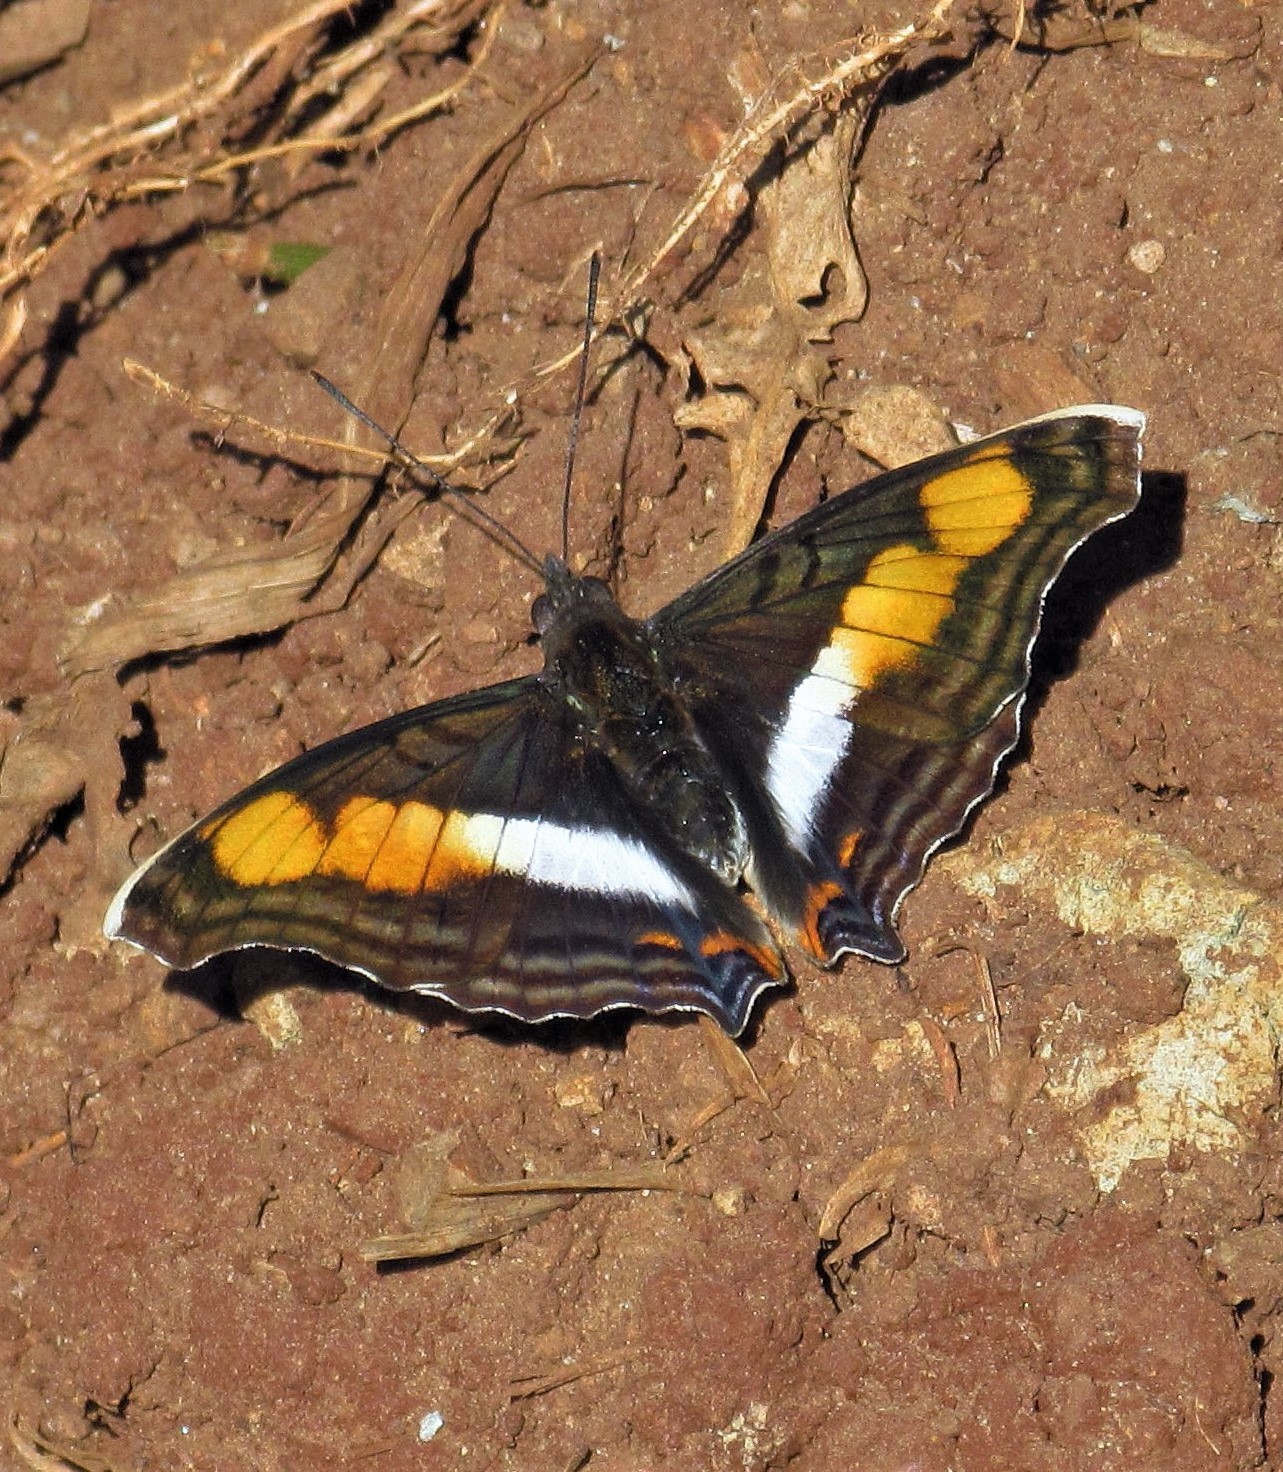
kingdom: Animalia
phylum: Arthropoda
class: Insecta
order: Lepidoptera
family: Nymphalidae
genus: Doxocopa
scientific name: Doxocopa linda
